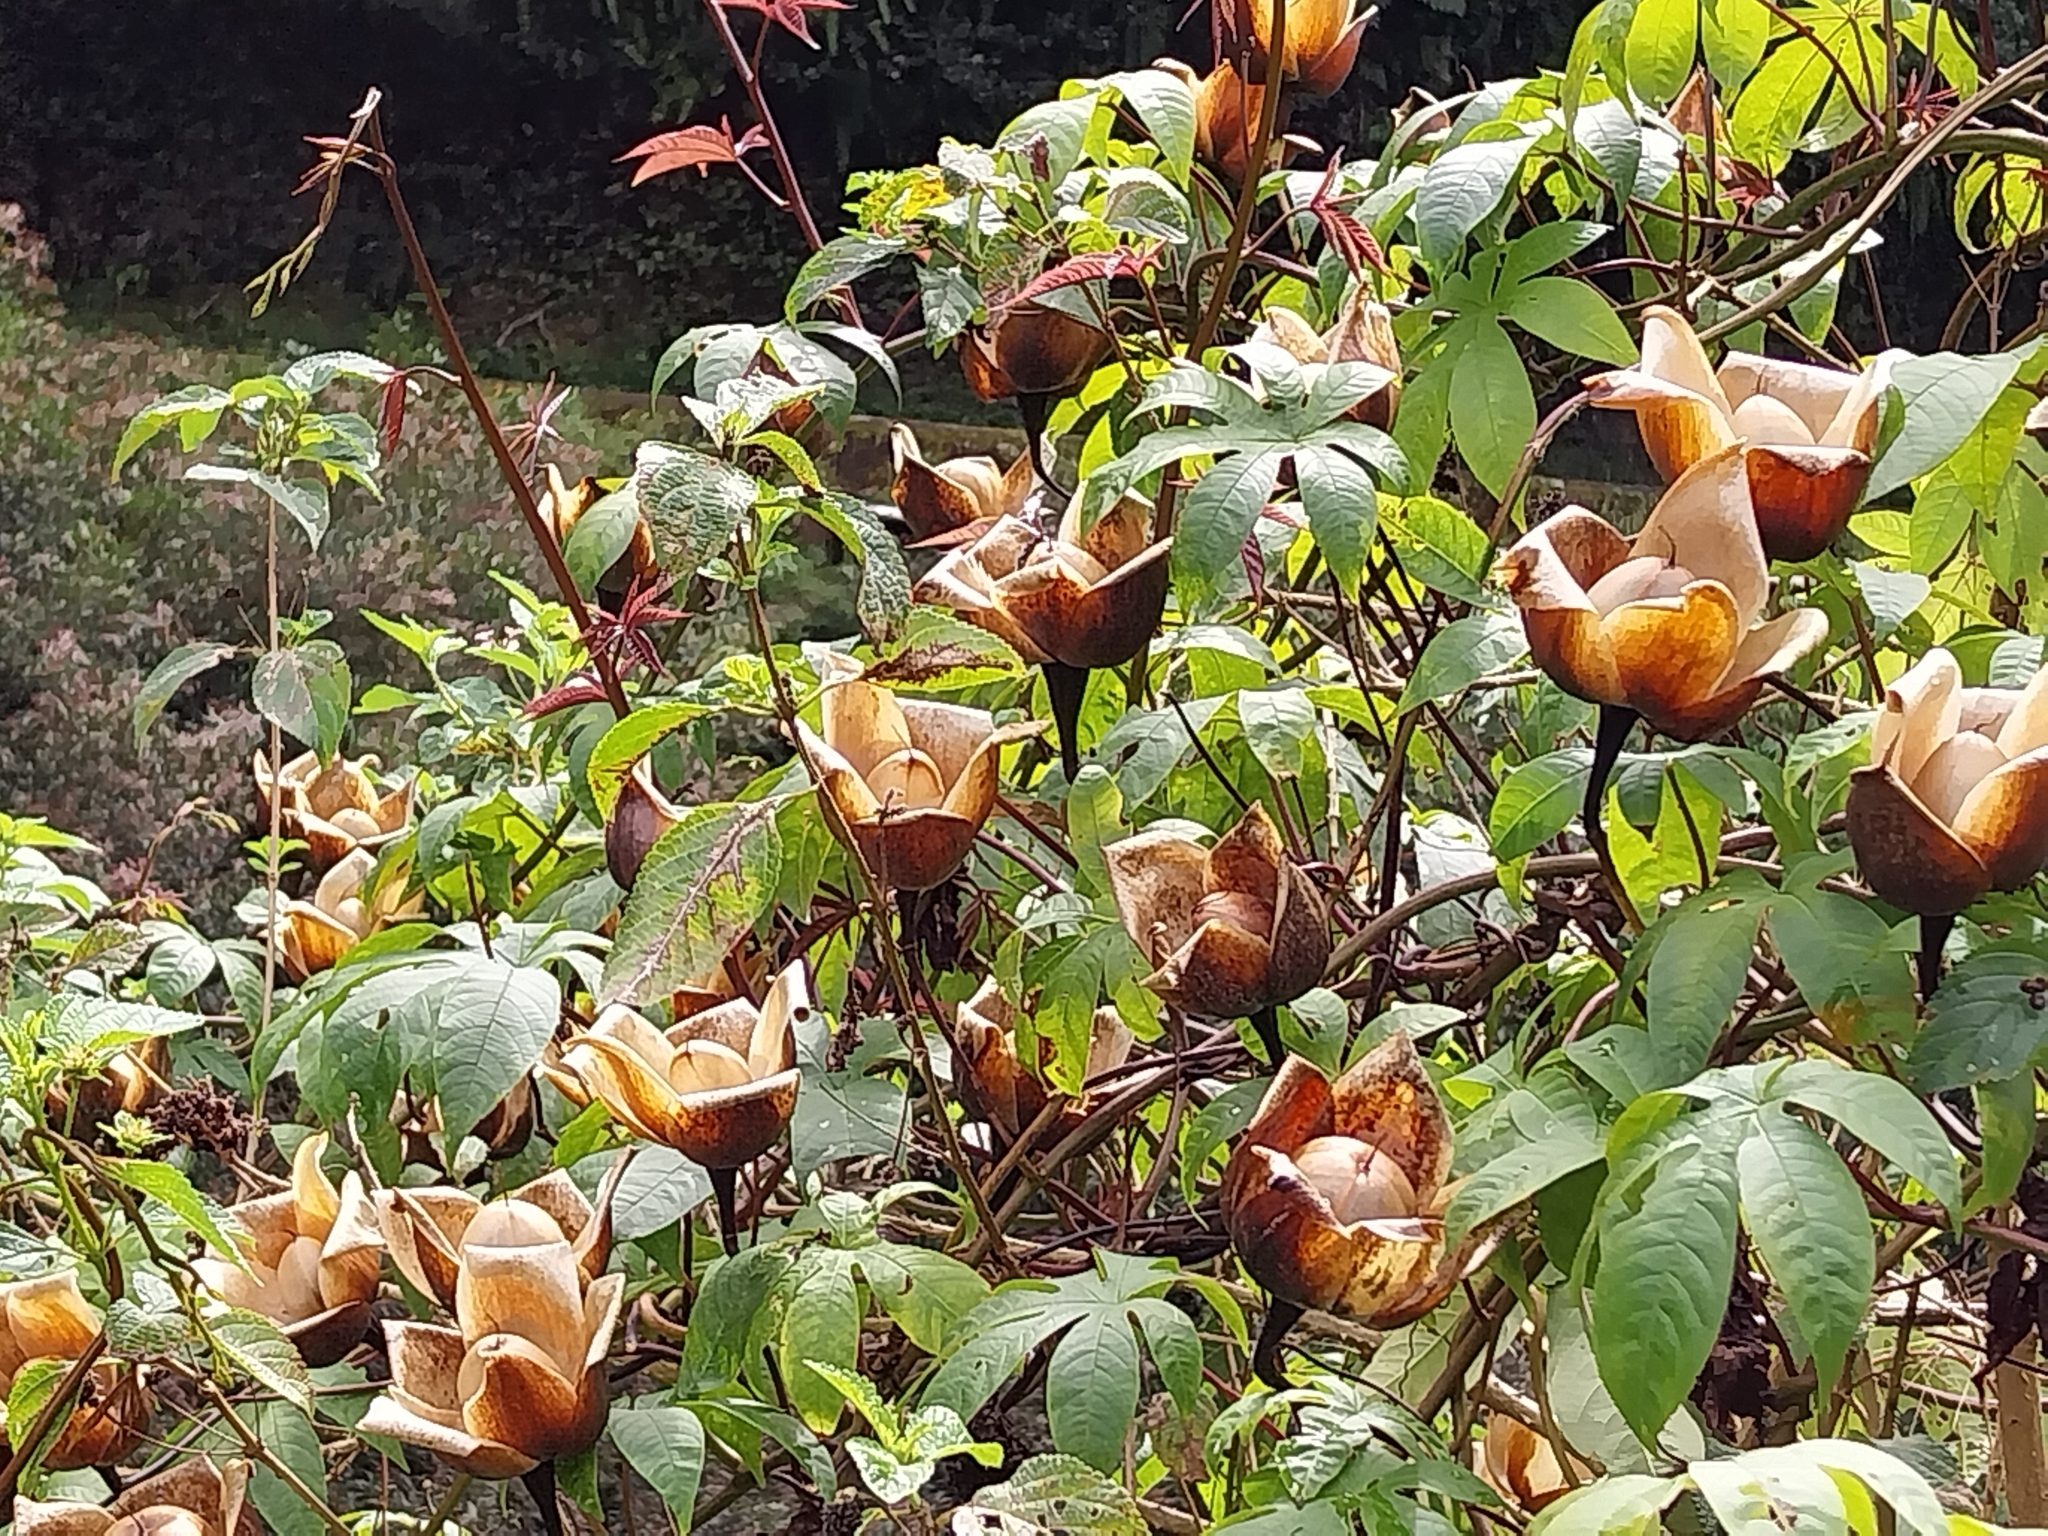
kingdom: Plantae
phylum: Tracheophyta
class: Magnoliopsida
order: Solanales
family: Convolvulaceae
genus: Distimake
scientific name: Distimake tuberosus
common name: Spanish arborvine
